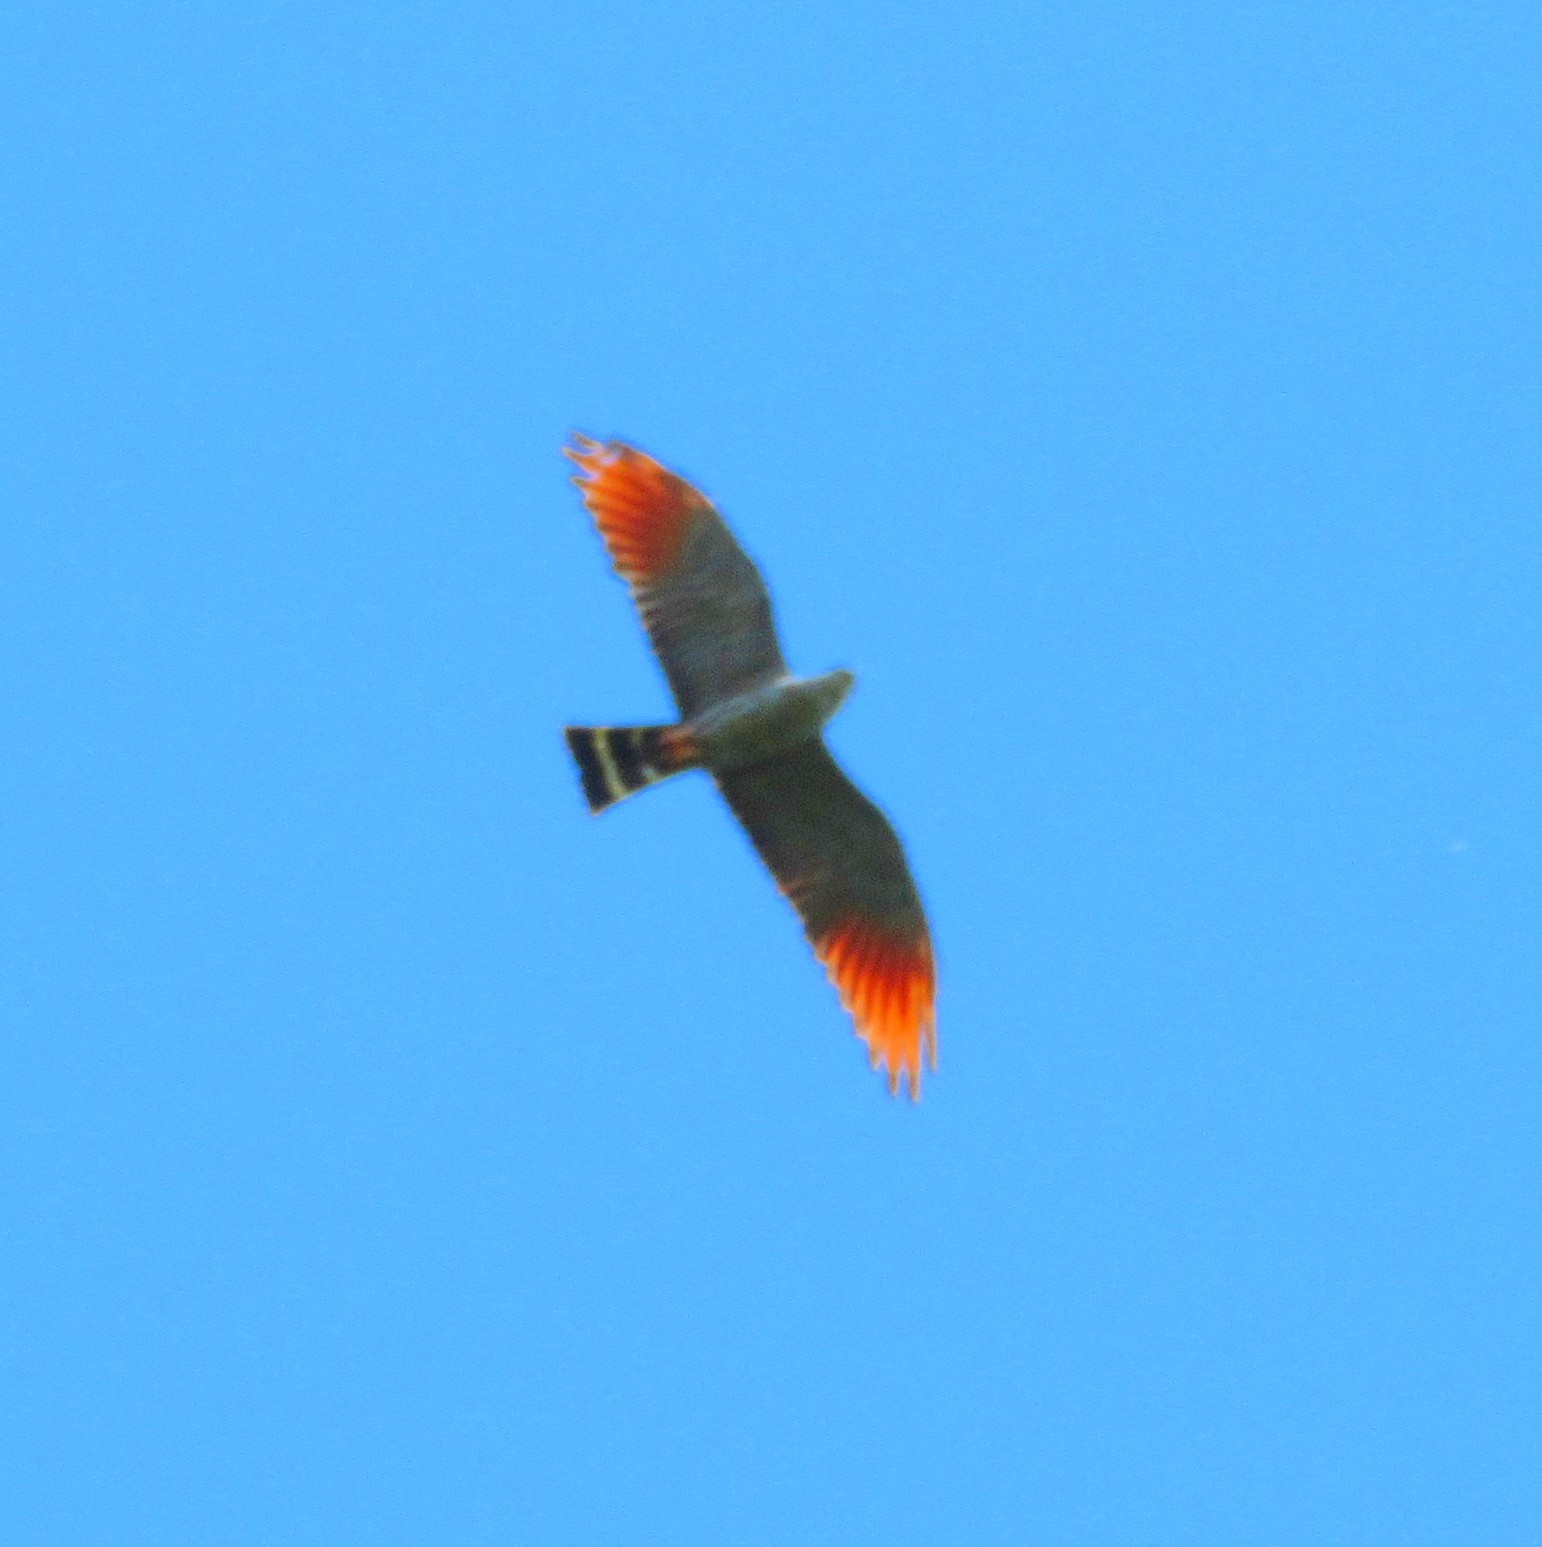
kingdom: Animalia
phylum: Chordata
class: Aves
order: Accipitriformes
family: Accipitridae
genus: Ictinia
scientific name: Ictinia plumbea
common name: Plumbeous kite
